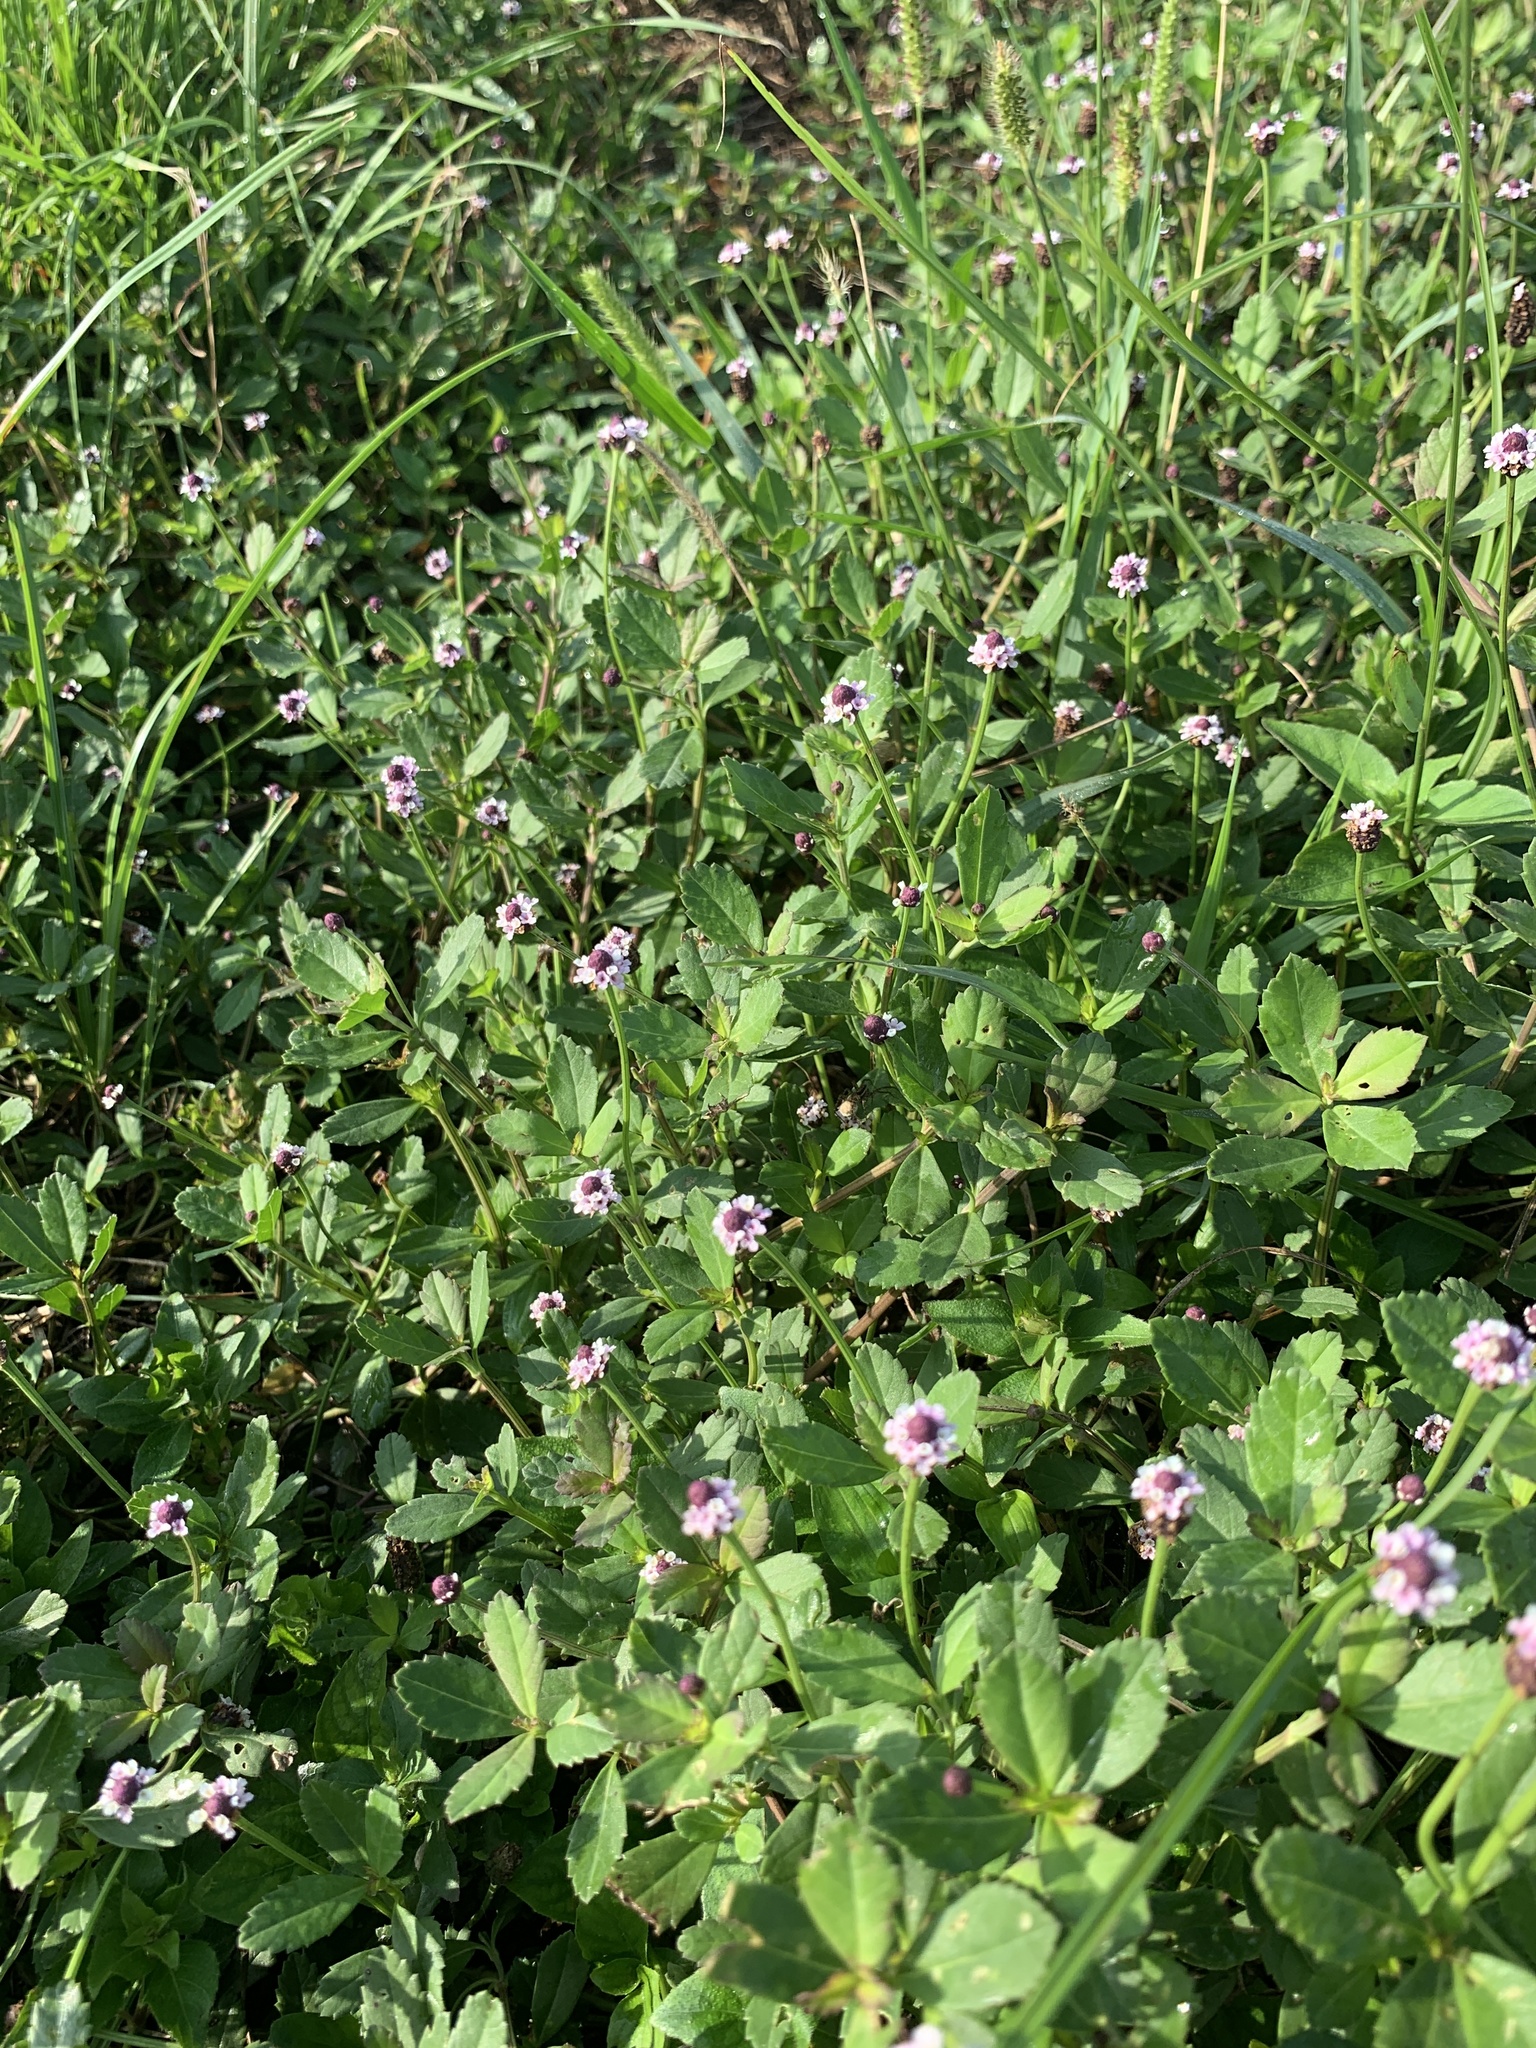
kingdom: Plantae
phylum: Tracheophyta
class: Magnoliopsida
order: Lamiales
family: Verbenaceae
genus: Phyla
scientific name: Phyla nodiflora
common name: Frogfruit
